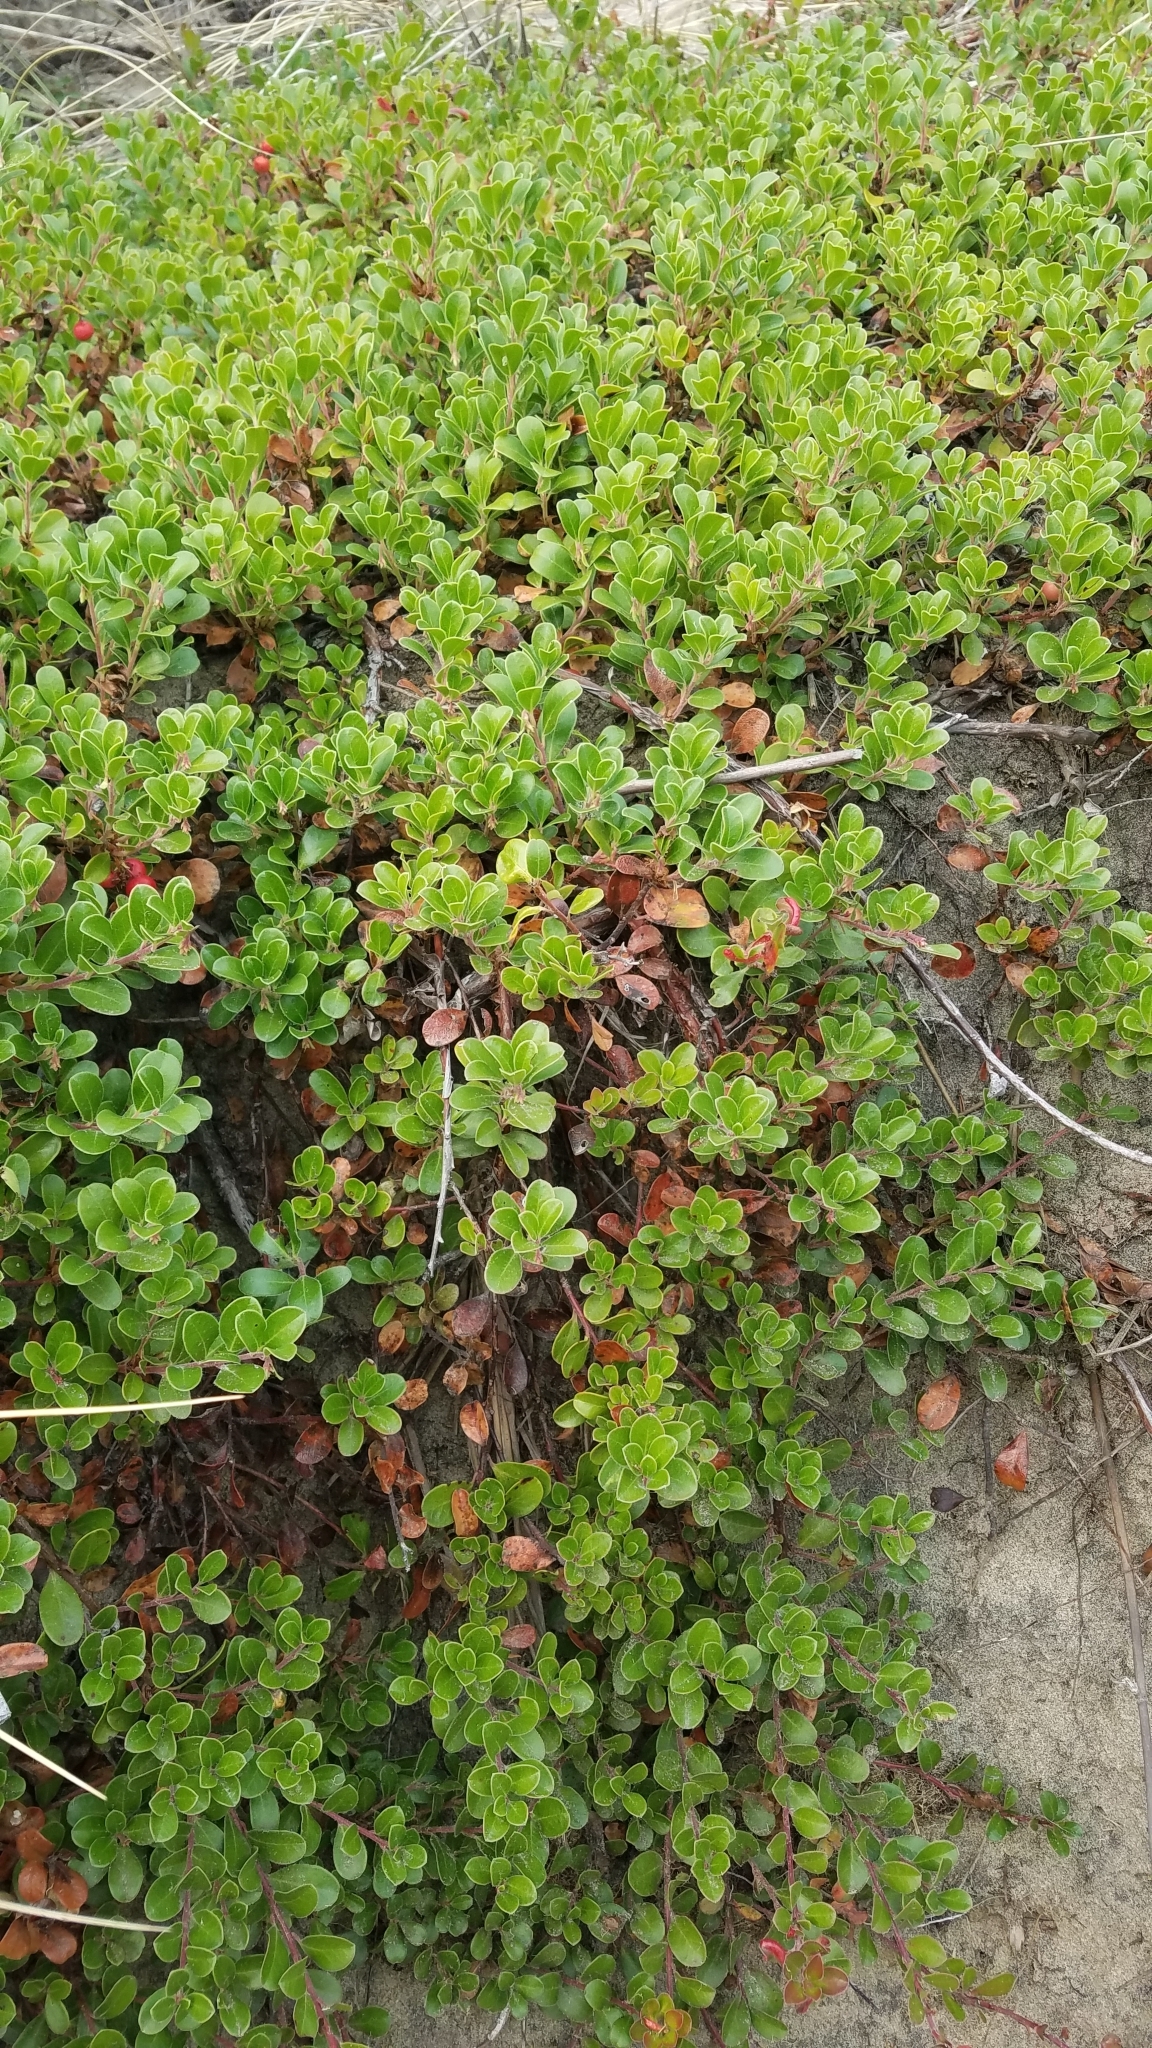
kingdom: Plantae
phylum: Tracheophyta
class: Magnoliopsida
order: Ericales
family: Ericaceae
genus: Arctostaphylos
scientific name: Arctostaphylos uva-ursi
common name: Bearberry
